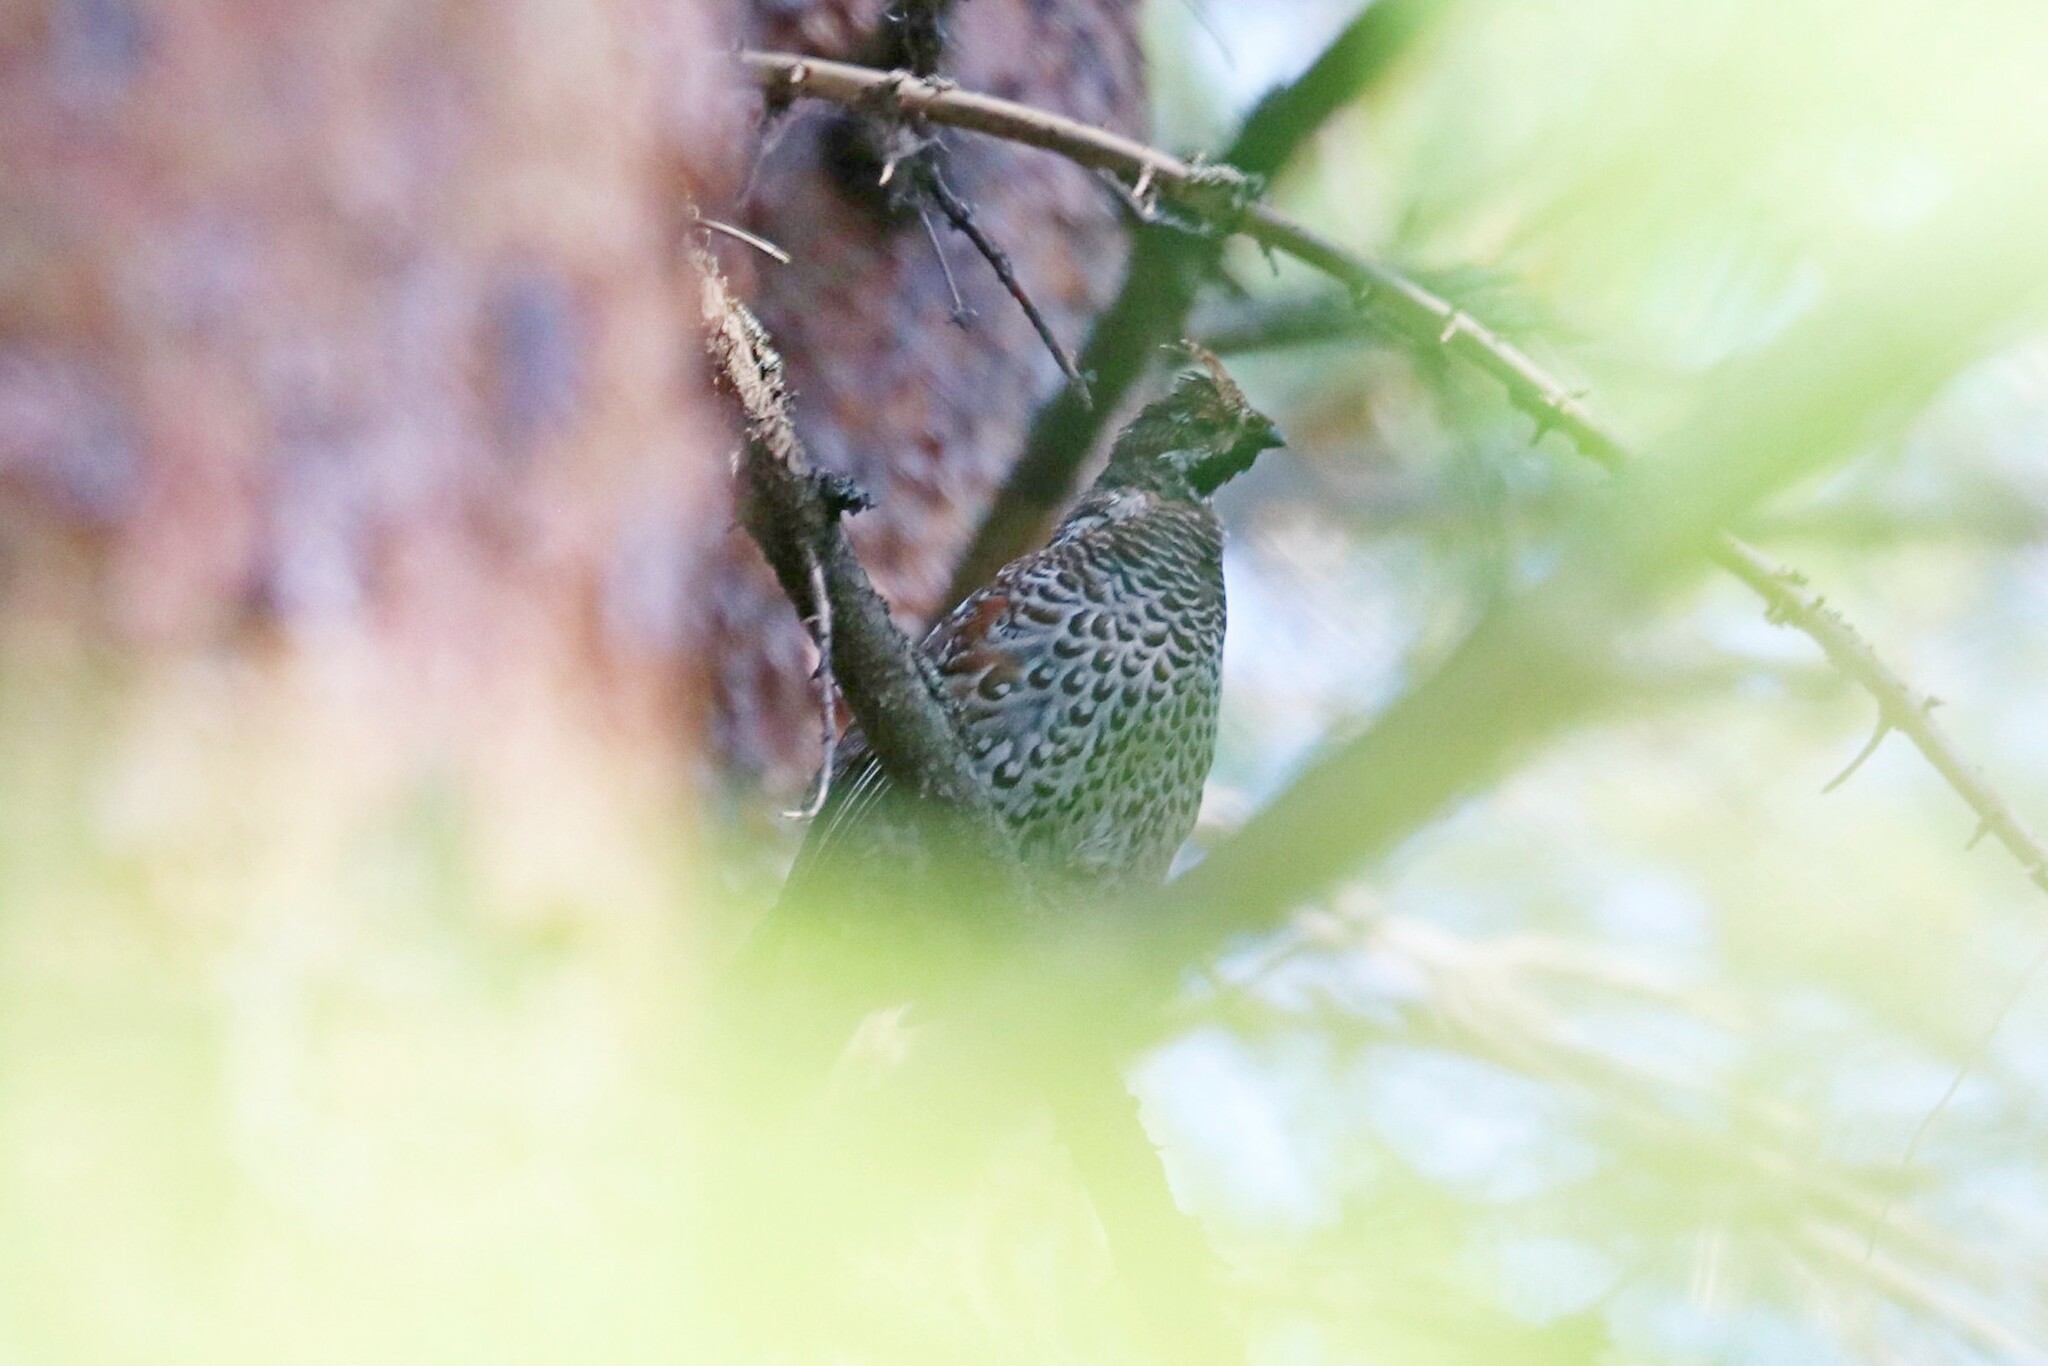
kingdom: Animalia
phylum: Chordata
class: Aves
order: Galliformes
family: Phasianidae
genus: Tetrastes
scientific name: Tetrastes bonasia
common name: Hazel grouse
